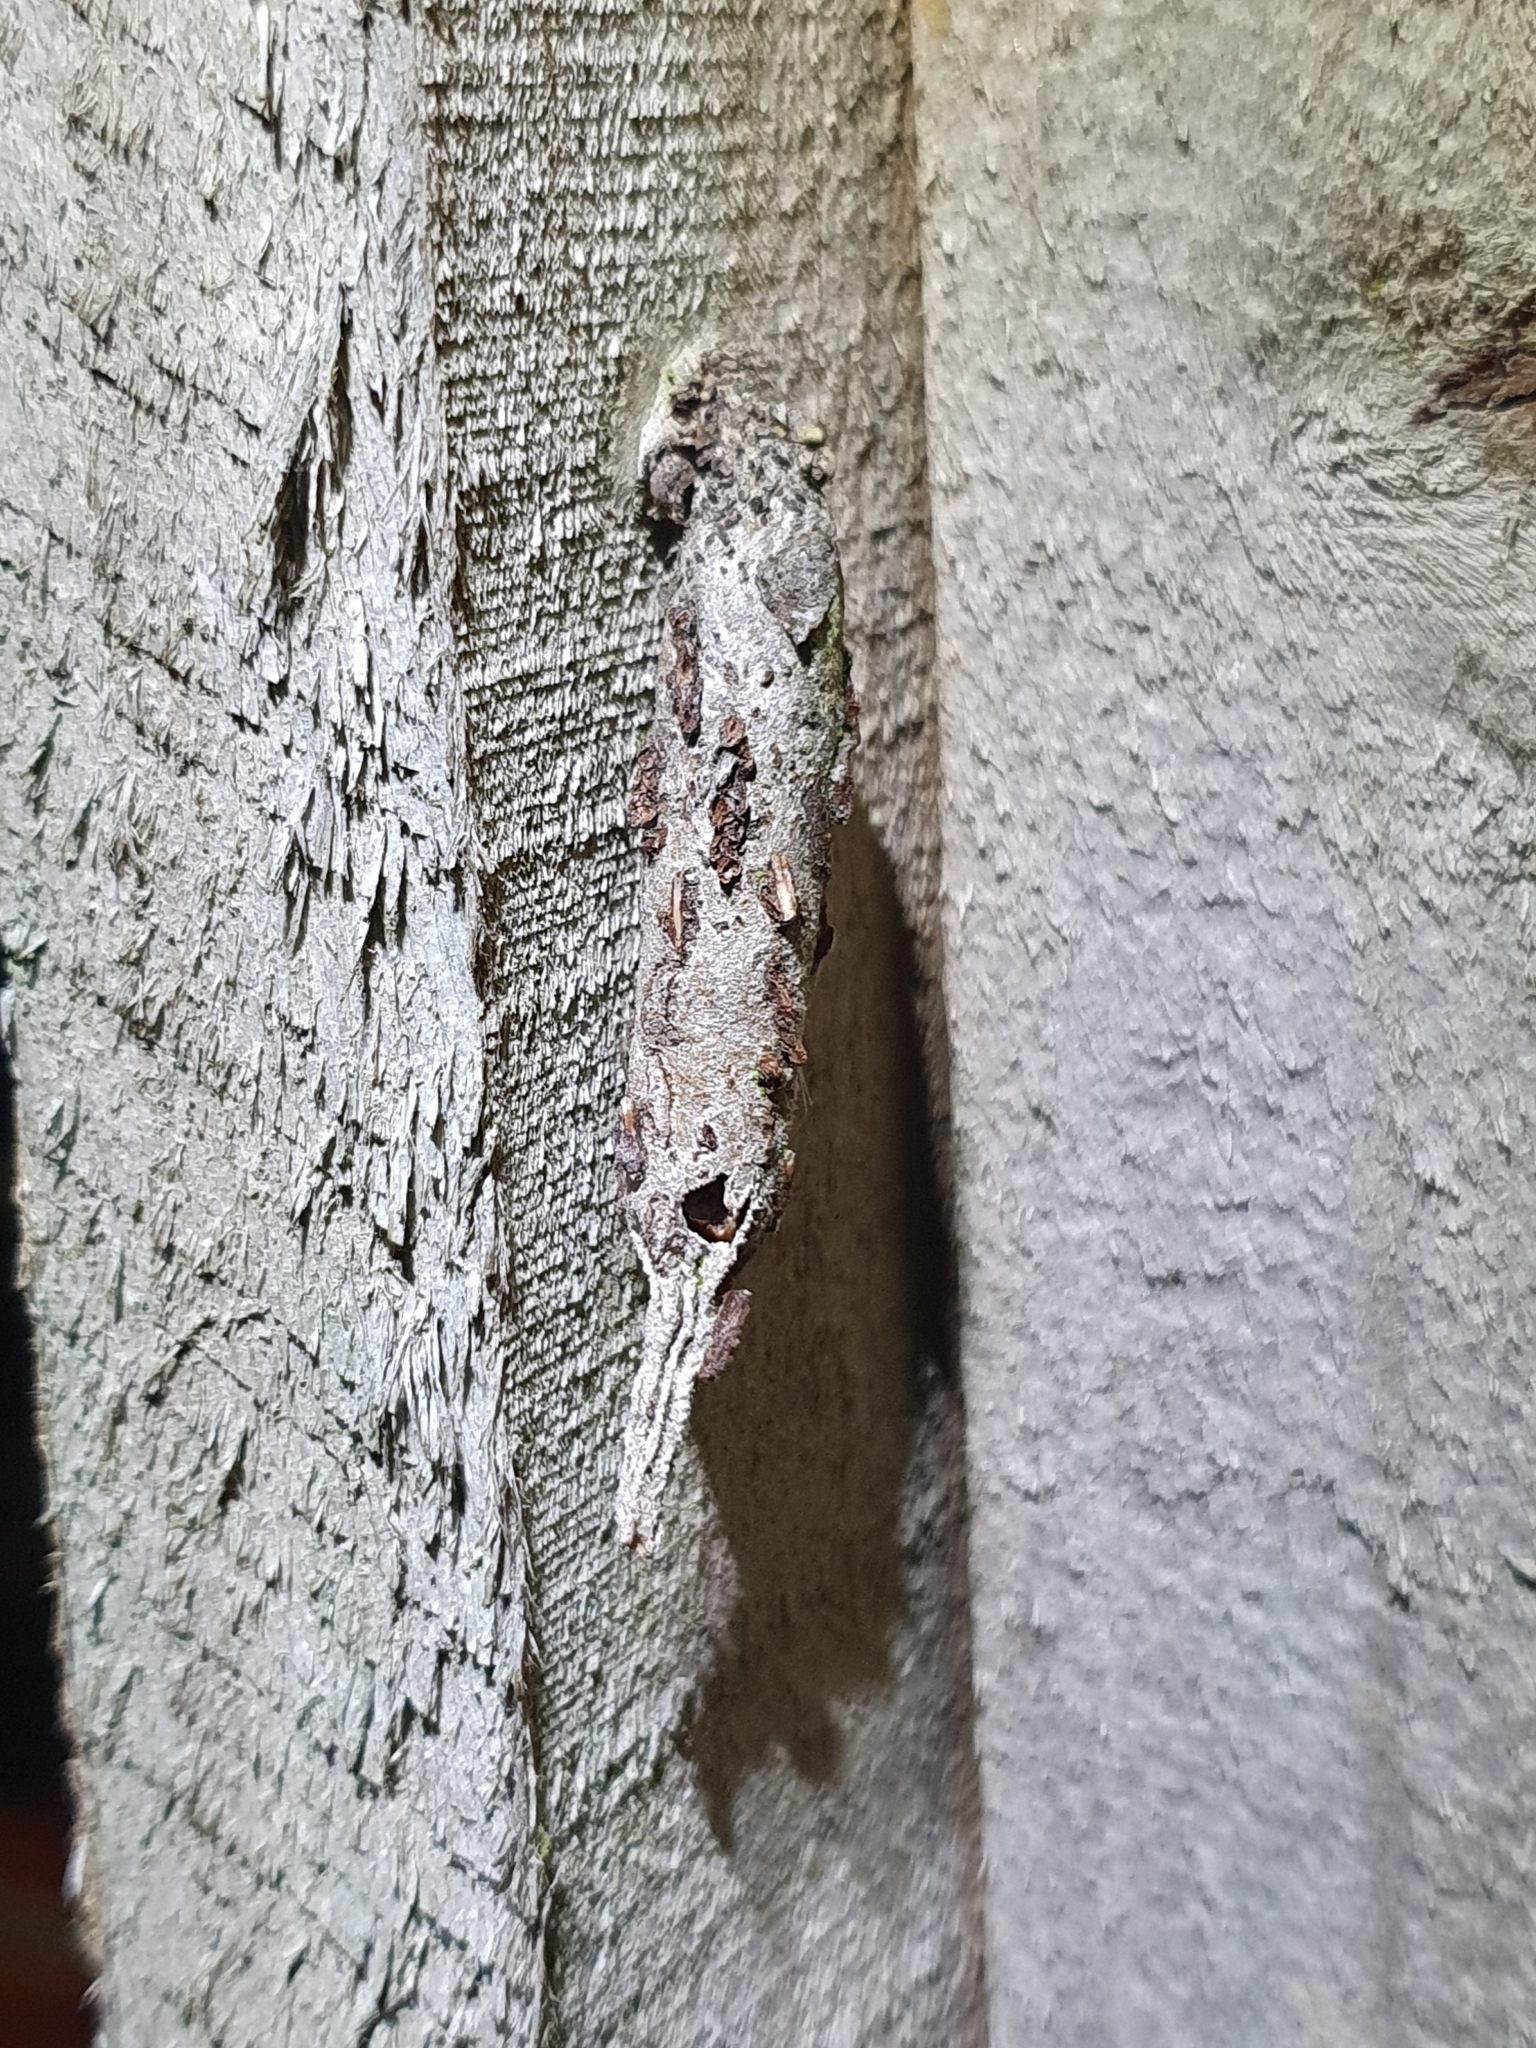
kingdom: Animalia
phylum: Arthropoda
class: Insecta
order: Lepidoptera
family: Psychidae
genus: Liothula
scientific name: Liothula omnivora
